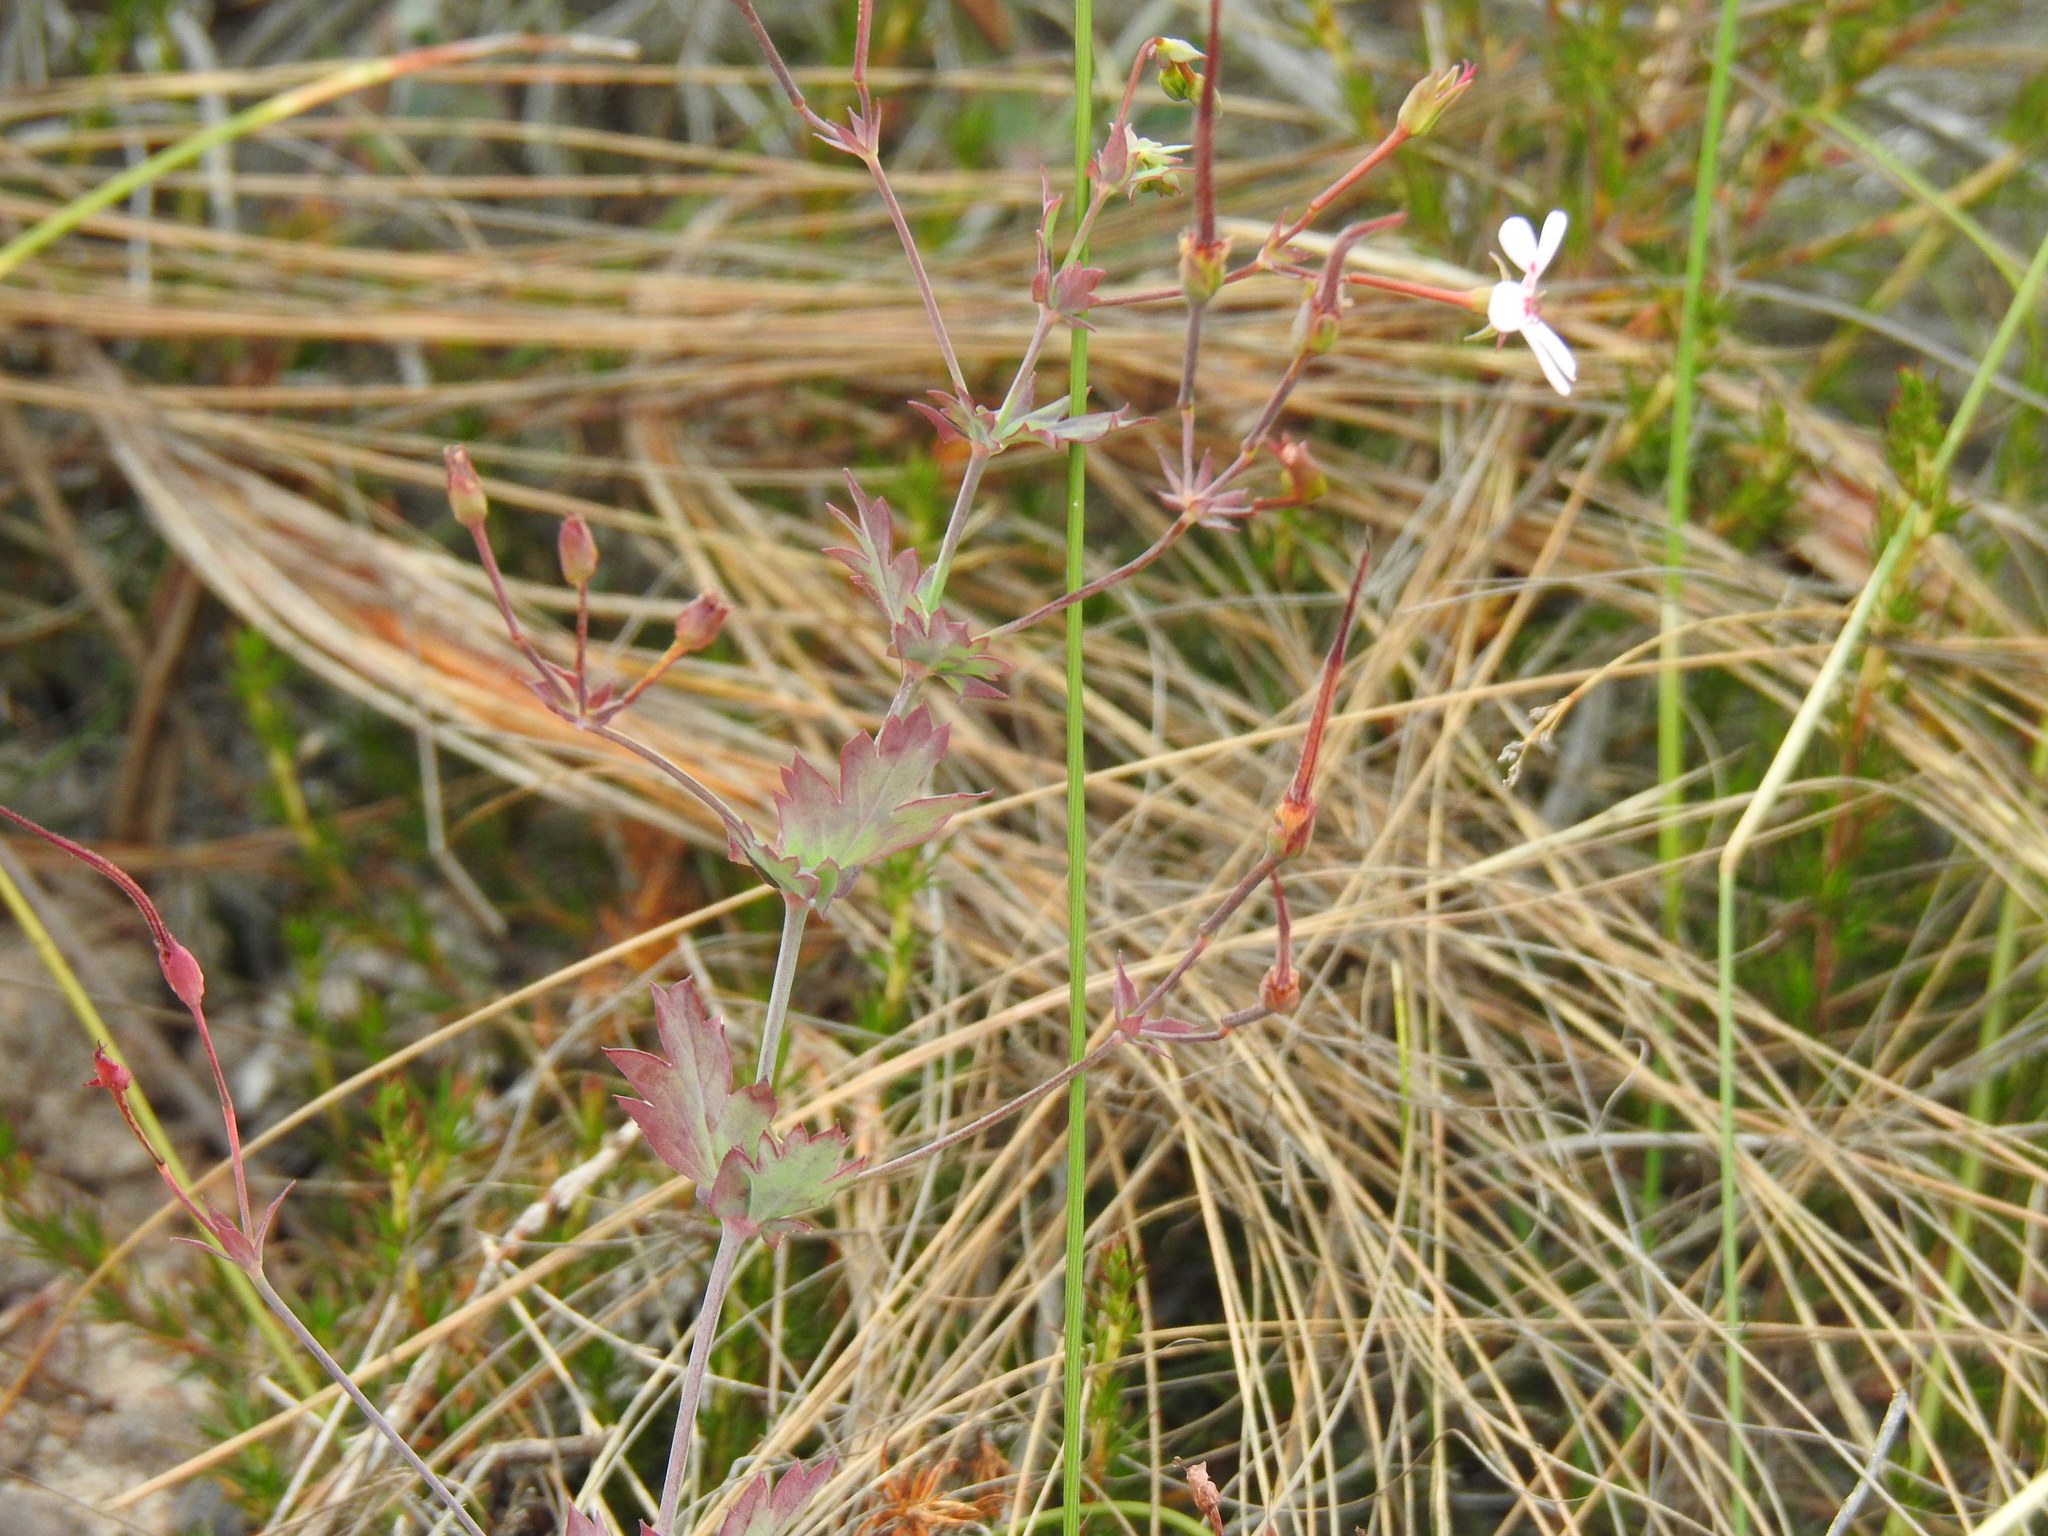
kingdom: Plantae
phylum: Tracheophyta
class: Magnoliopsida
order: Geraniales
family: Geraniaceae
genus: Pelargonium
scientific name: Pelargonium patulum
